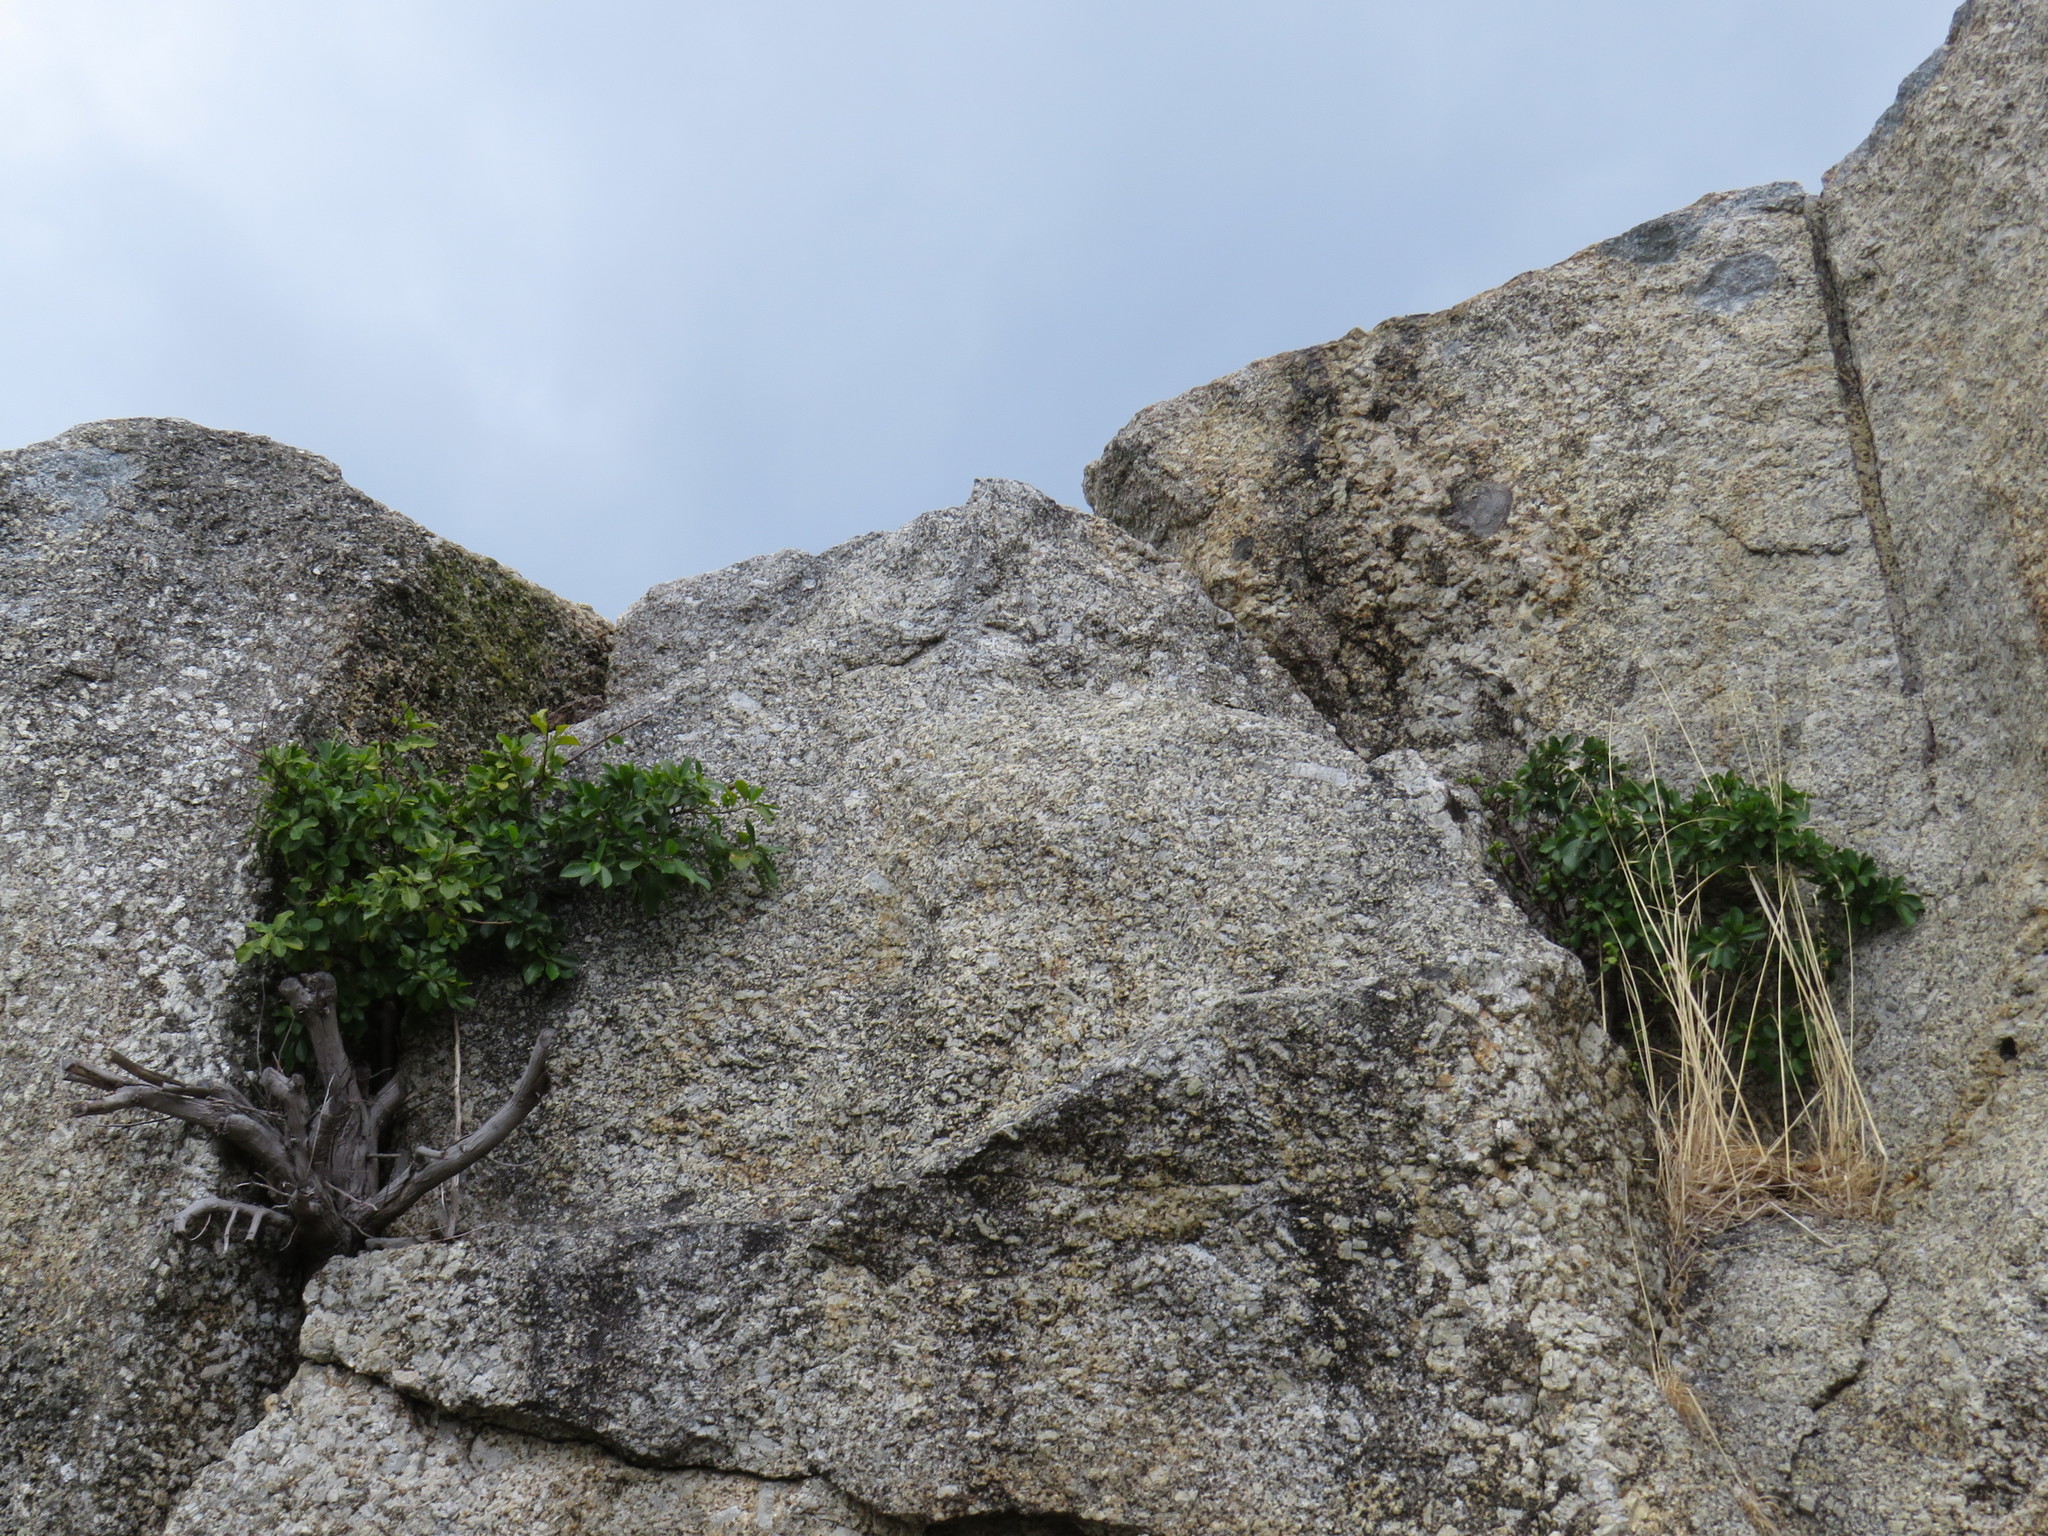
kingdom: Plantae
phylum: Tracheophyta
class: Magnoliopsida
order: Rosales
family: Moraceae
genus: Ficus
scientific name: Ficus thonningii
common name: Fig
